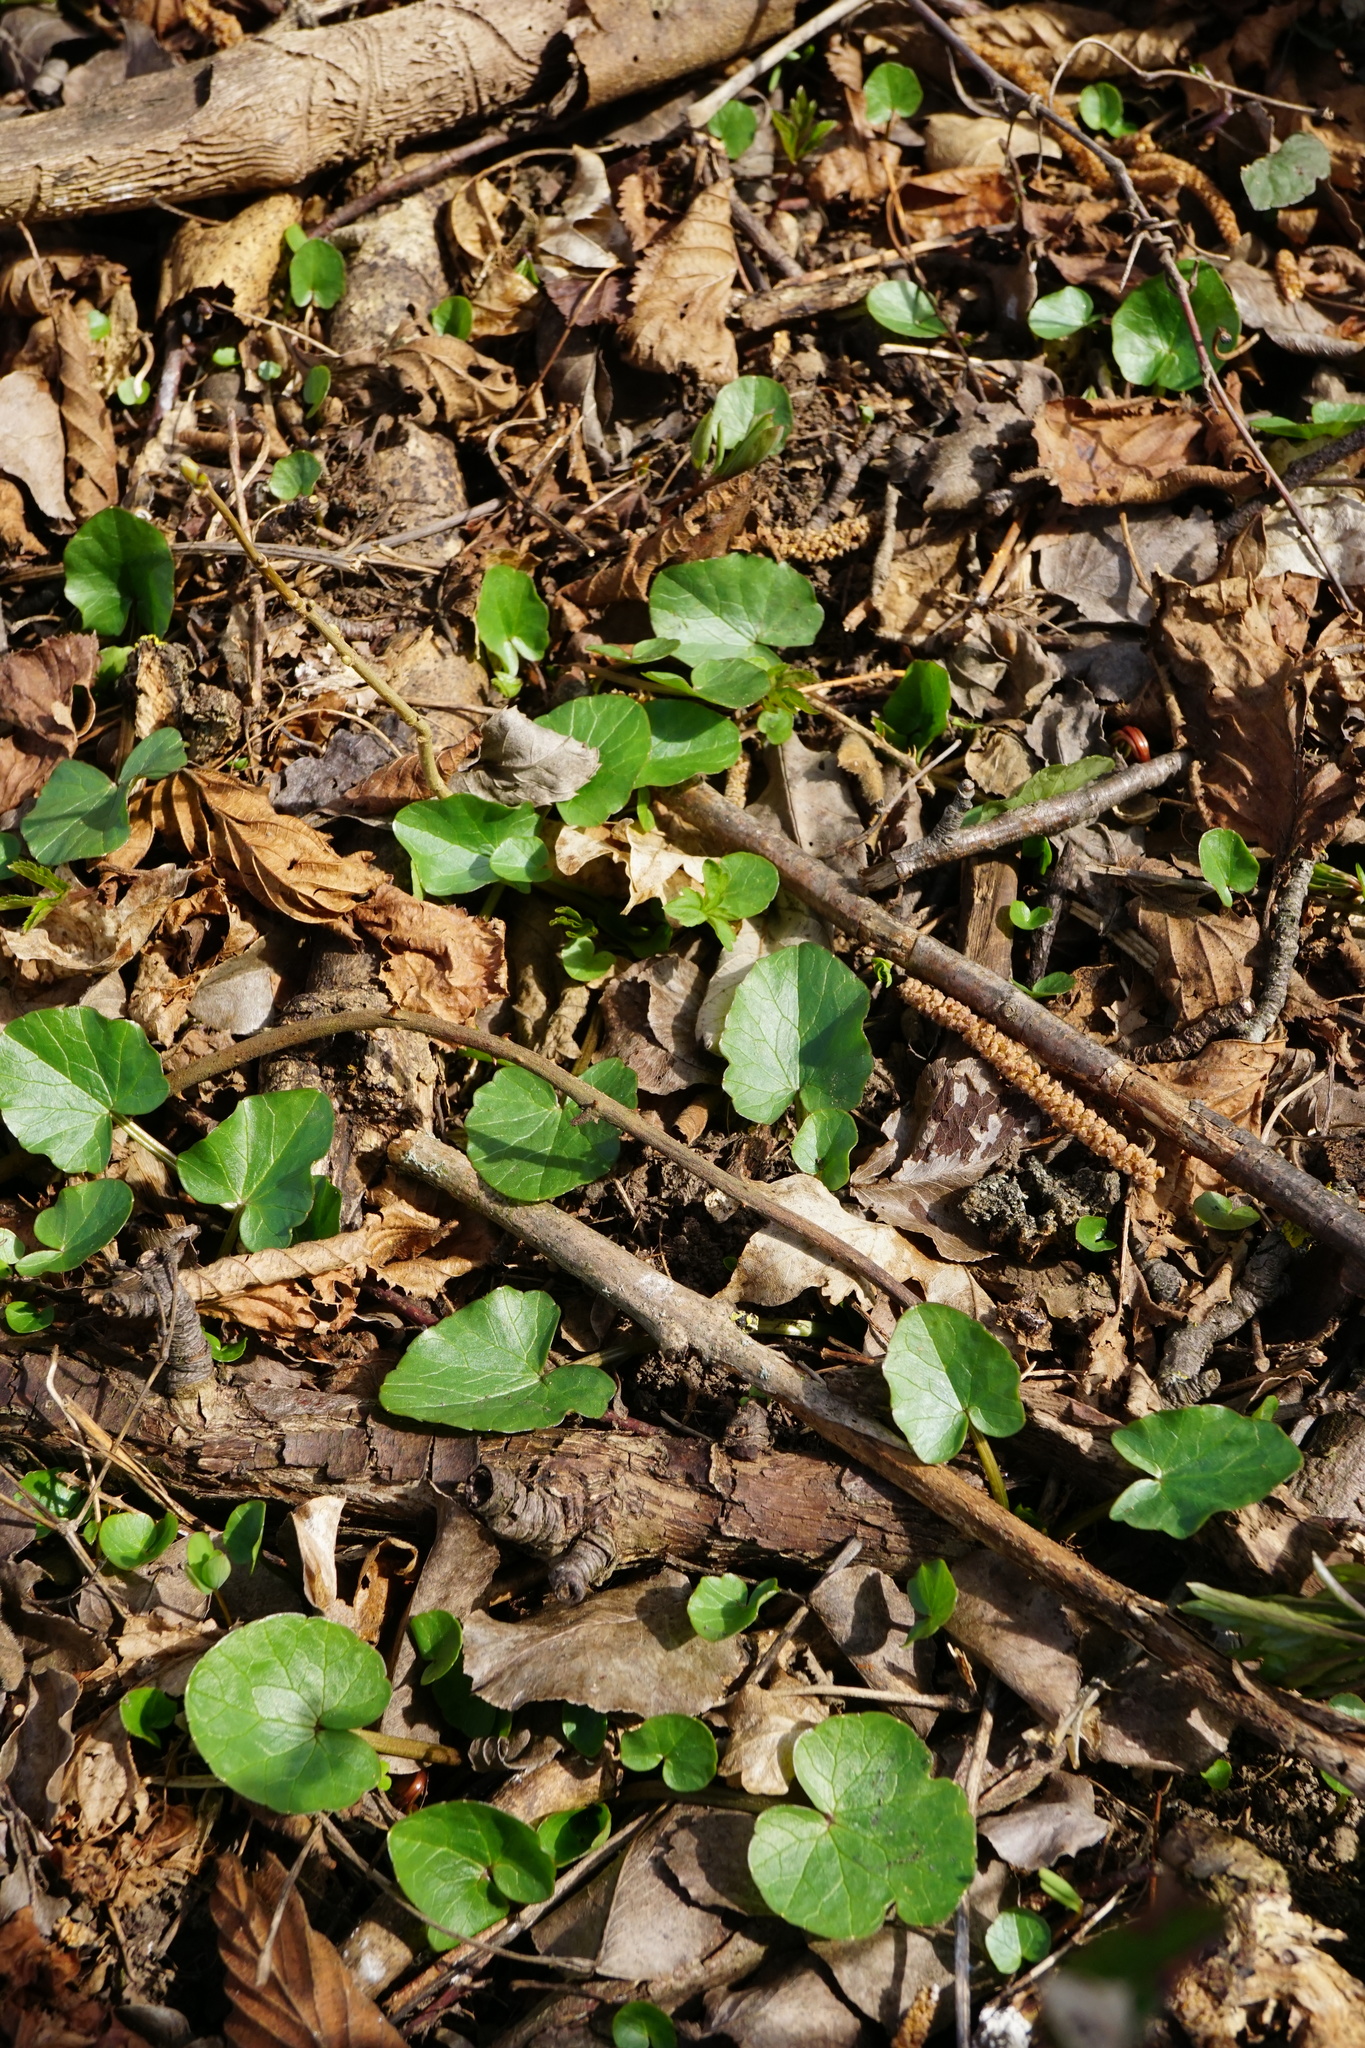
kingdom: Plantae
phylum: Tracheophyta
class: Magnoliopsida
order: Ranunculales
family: Ranunculaceae
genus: Ficaria
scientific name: Ficaria verna
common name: Lesser celandine
